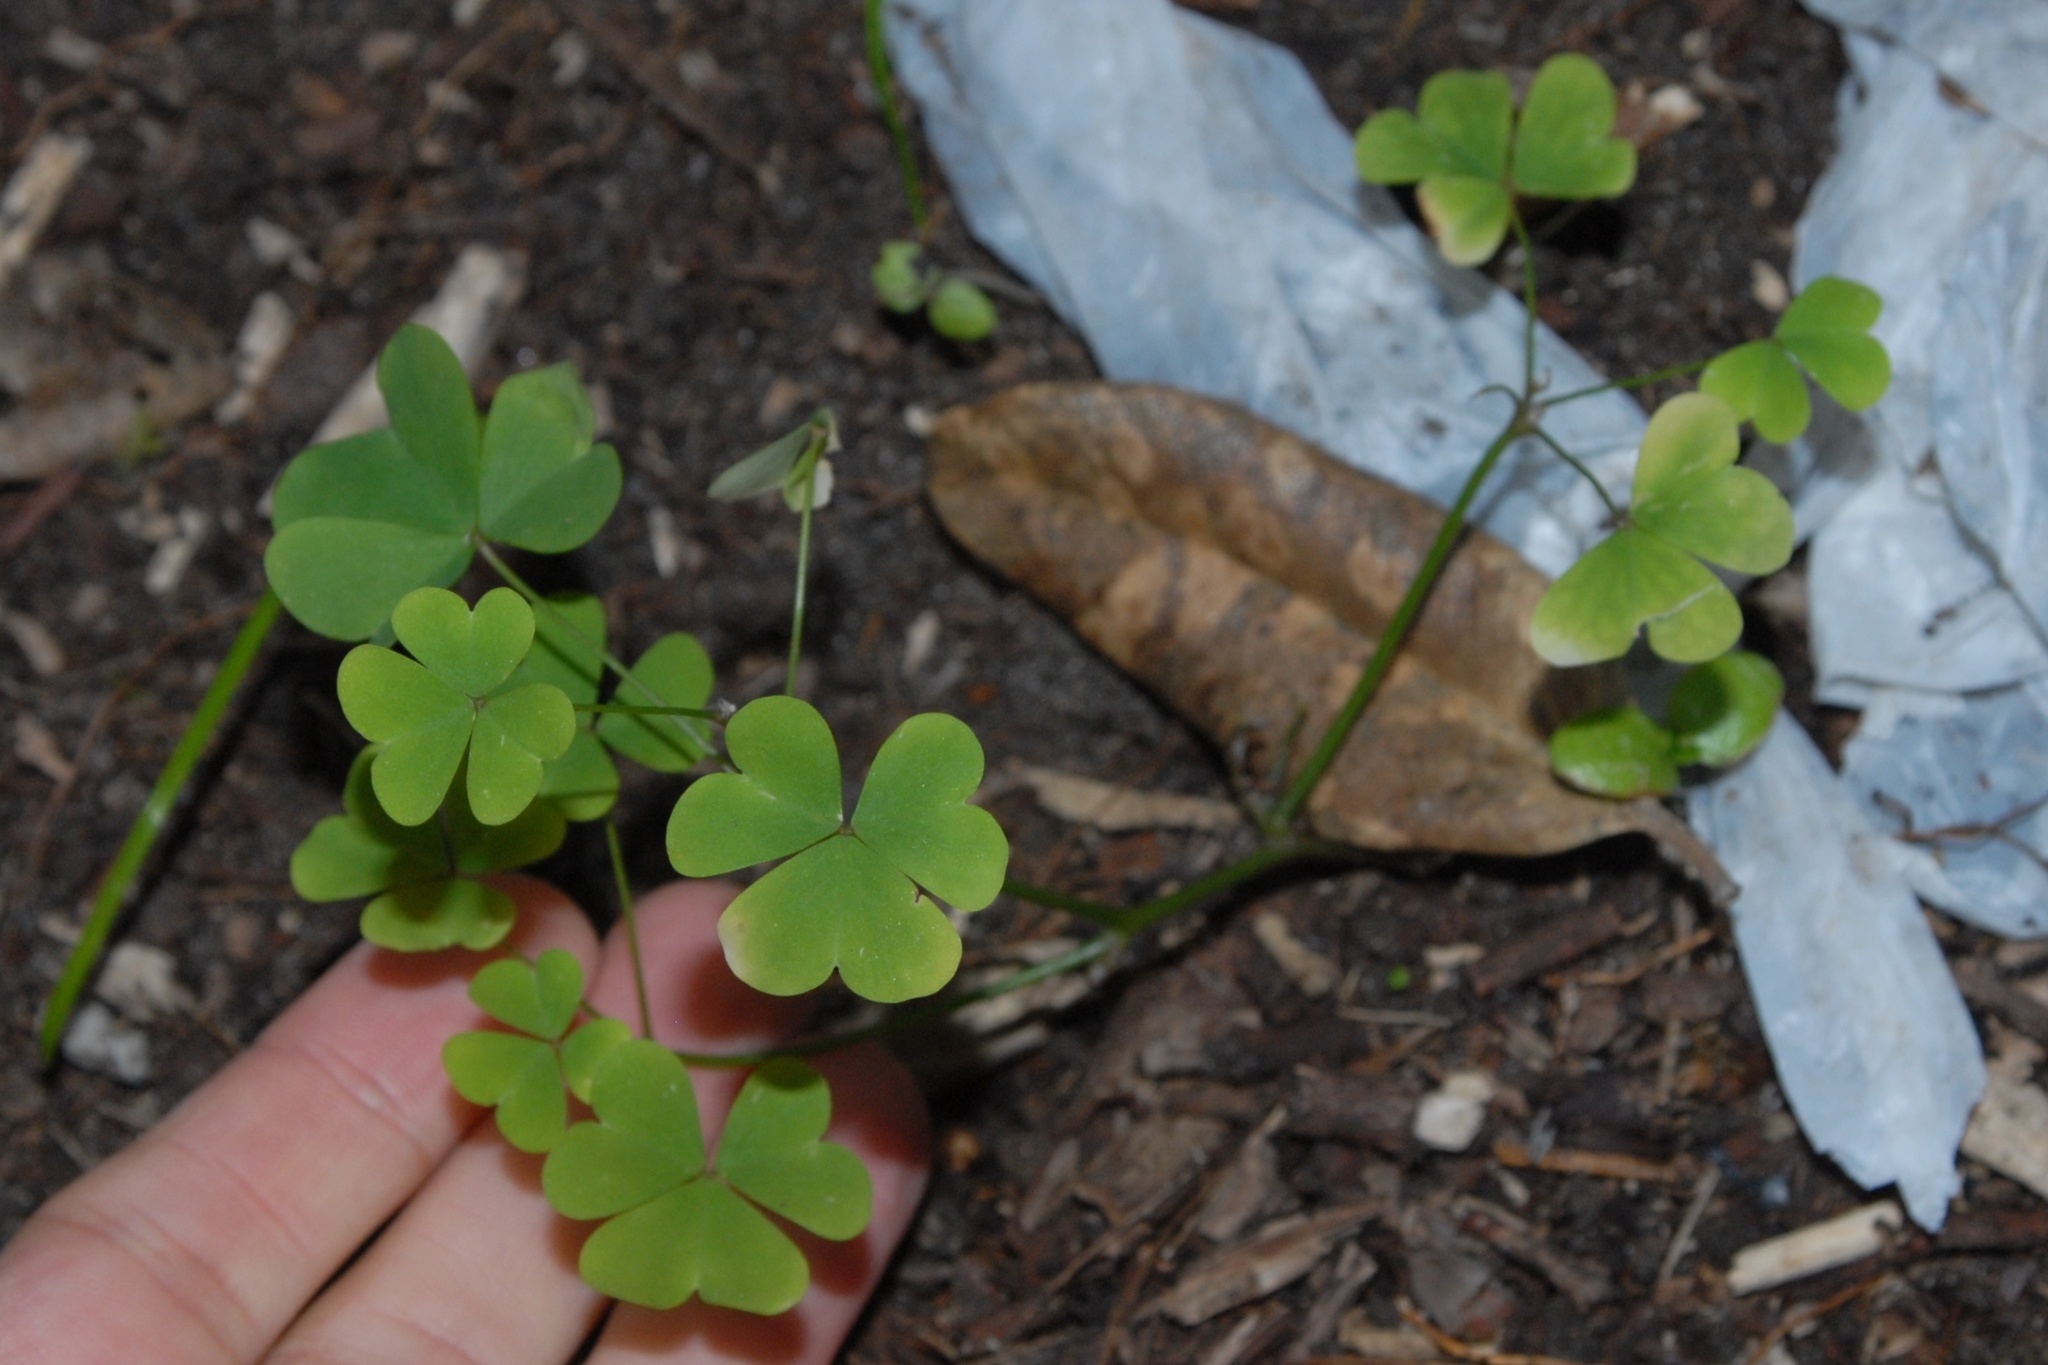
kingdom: Plantae
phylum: Tracheophyta
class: Magnoliopsida
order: Oxalidales
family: Oxalidaceae
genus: Oxalis
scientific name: Oxalis
